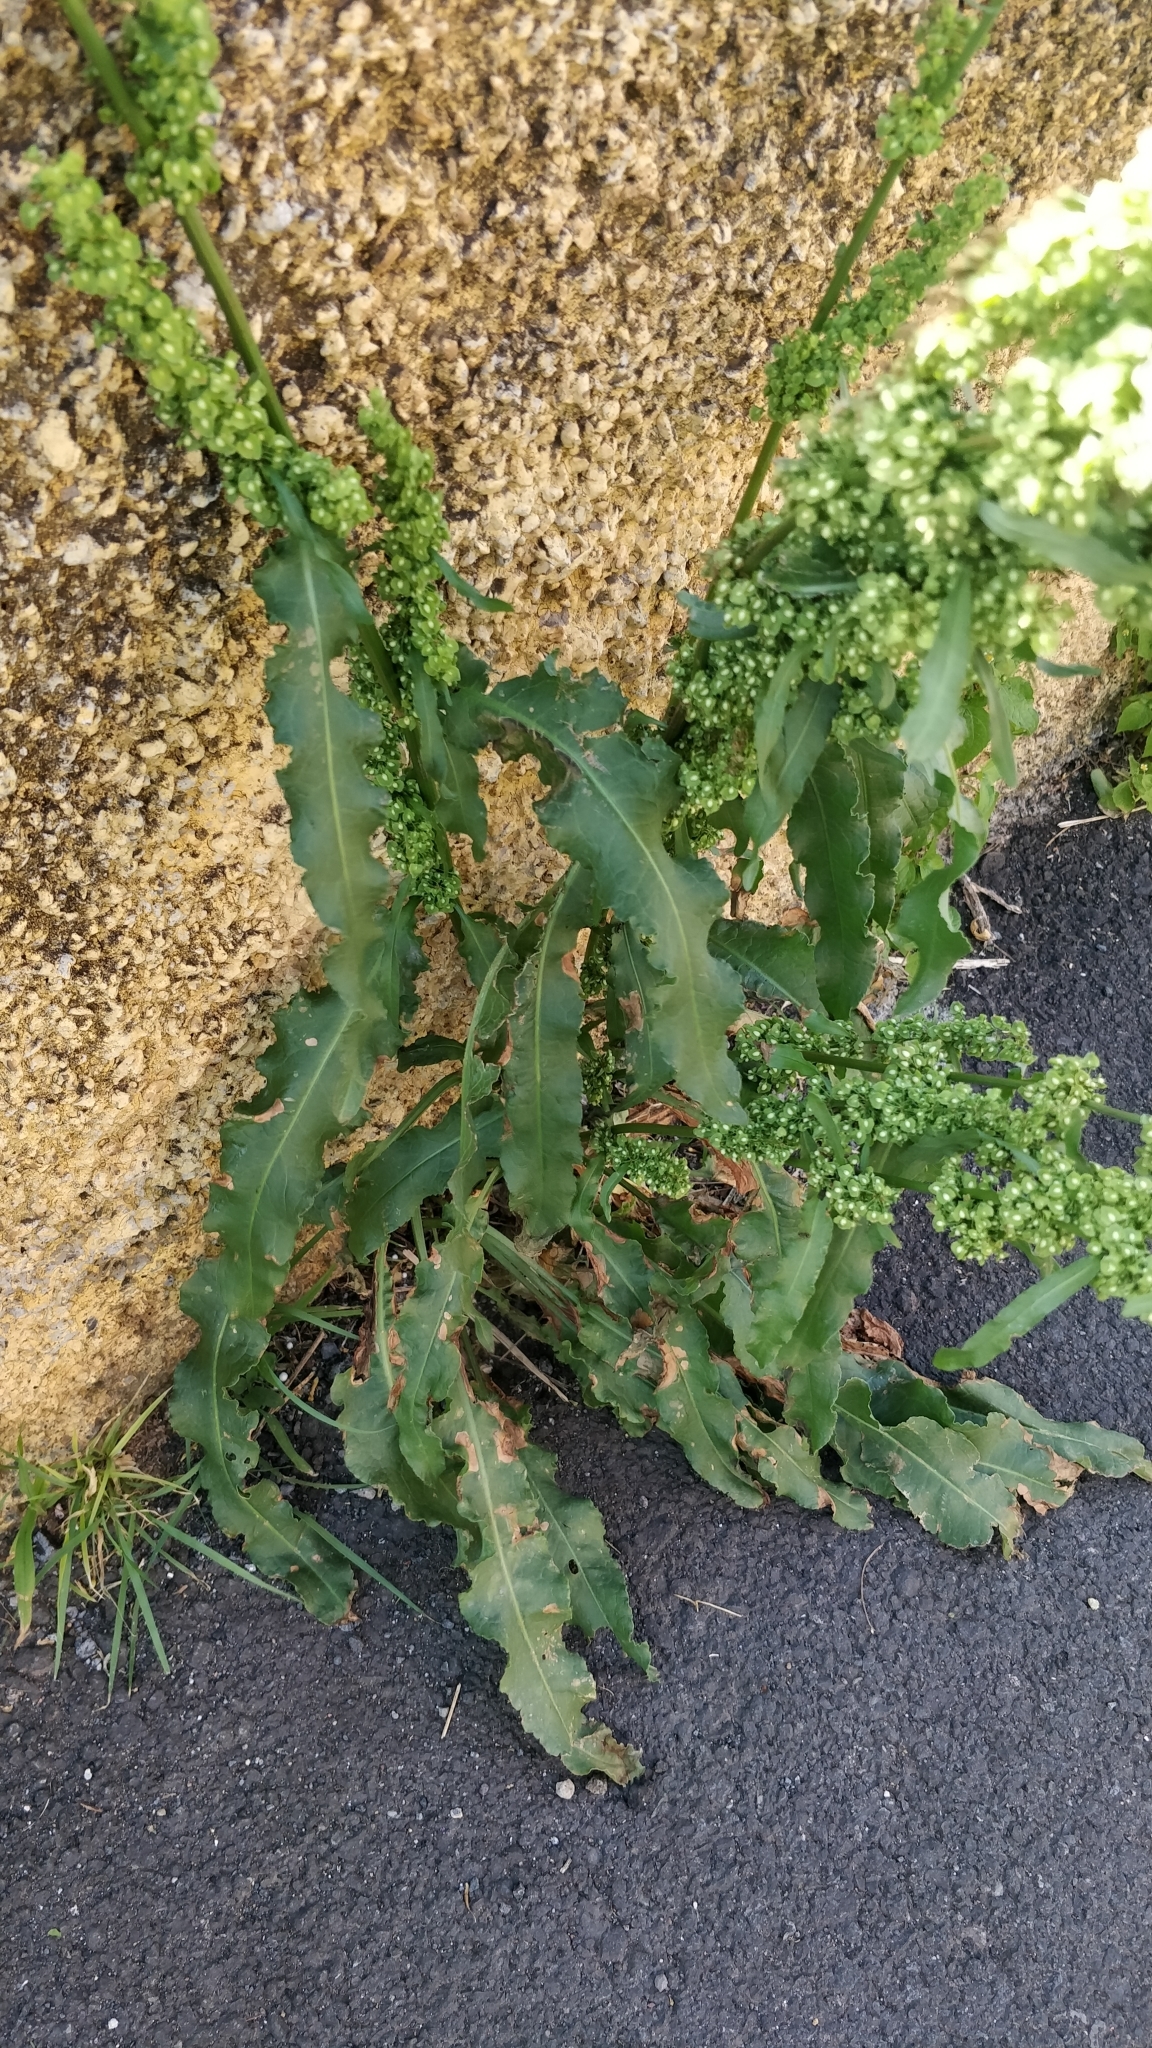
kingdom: Plantae
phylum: Tracheophyta
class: Magnoliopsida
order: Caryophyllales
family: Polygonaceae
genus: Rumex
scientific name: Rumex crispus
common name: Curled dock
